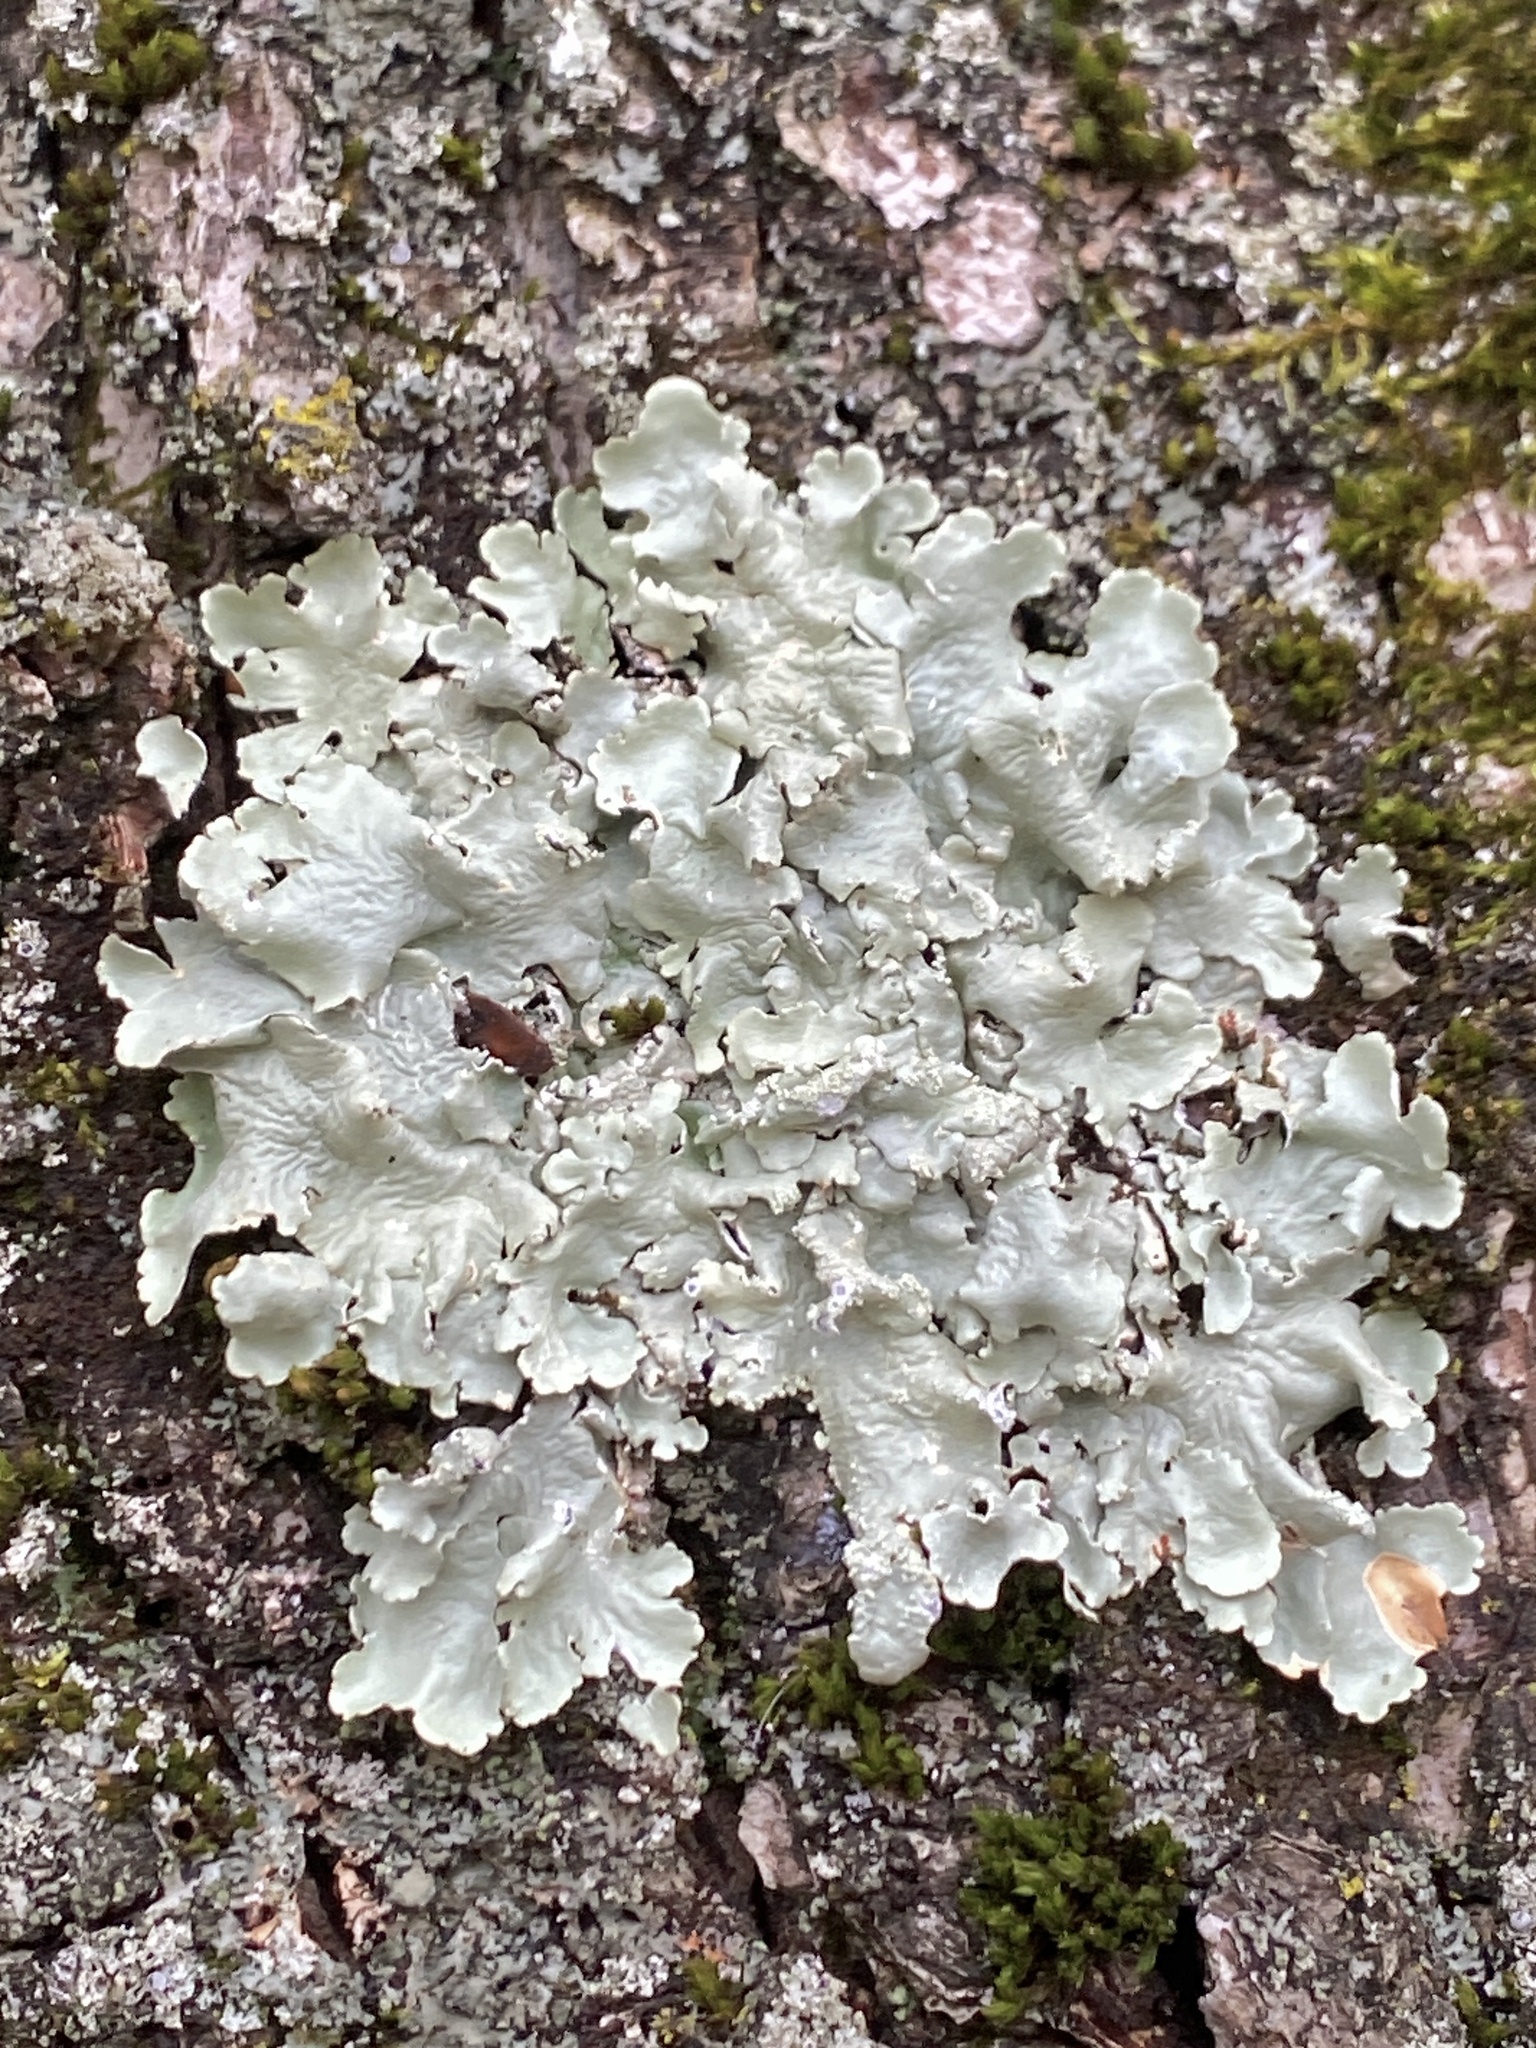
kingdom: Fungi
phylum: Ascomycota
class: Lecanoromycetes
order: Lecanorales
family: Parmeliaceae
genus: Flavoparmelia
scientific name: Flavoparmelia caperata
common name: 40-mile per hour lichen
